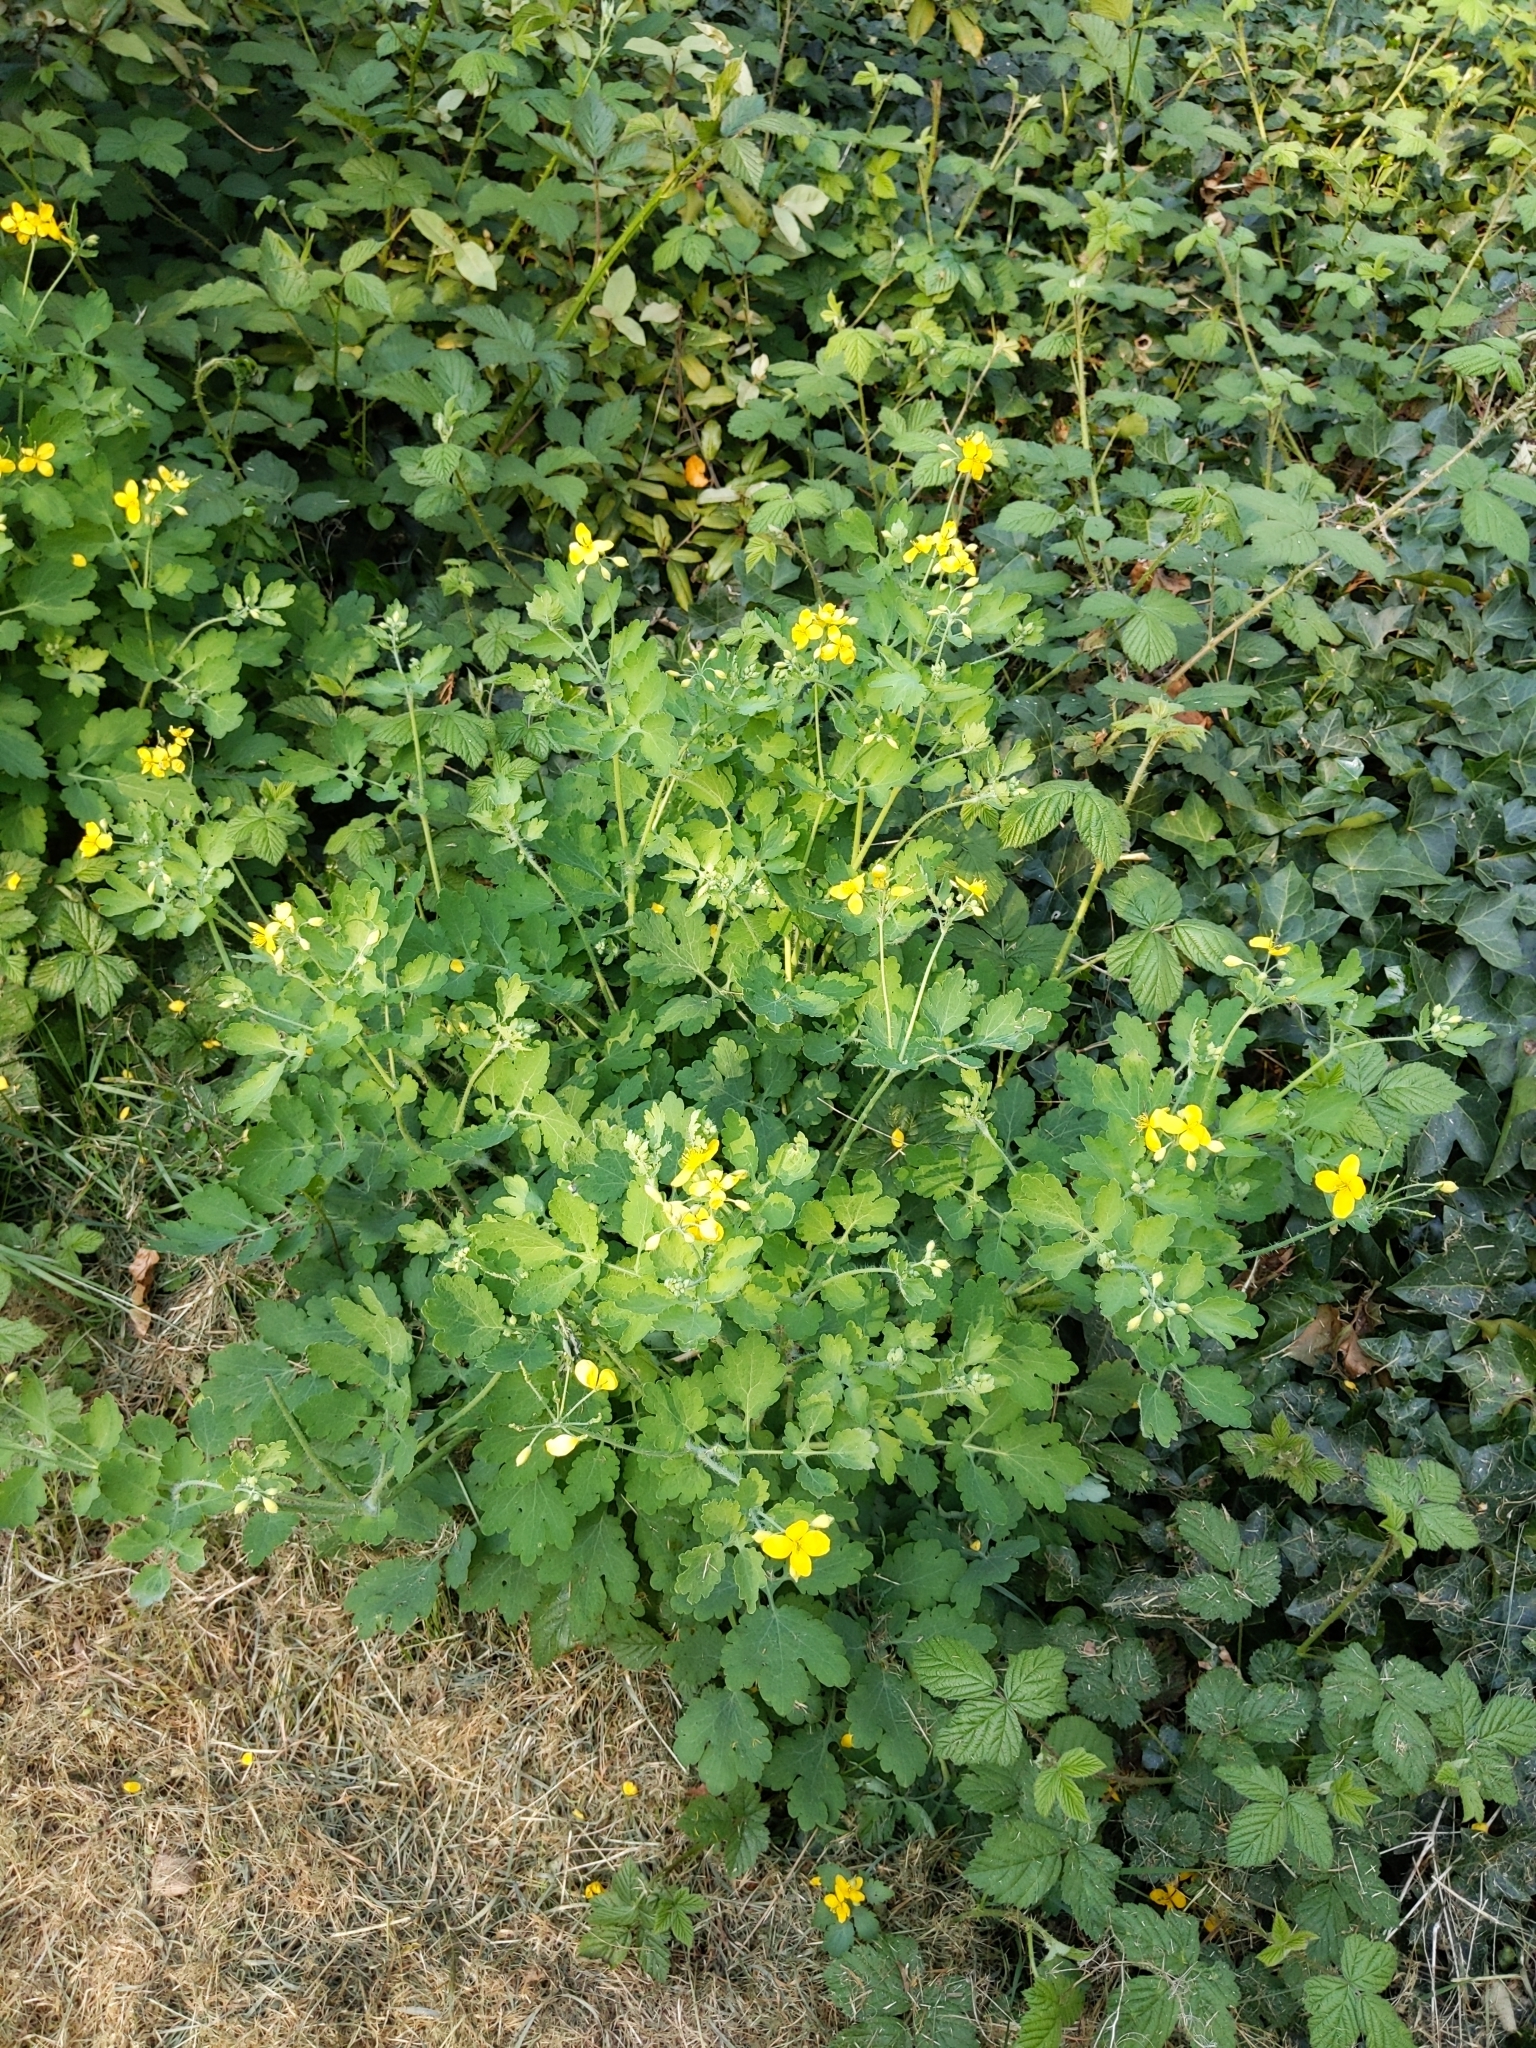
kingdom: Plantae
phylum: Tracheophyta
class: Magnoliopsida
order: Ranunculales
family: Papaveraceae
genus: Chelidonium
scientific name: Chelidonium majus
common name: Greater celandine
